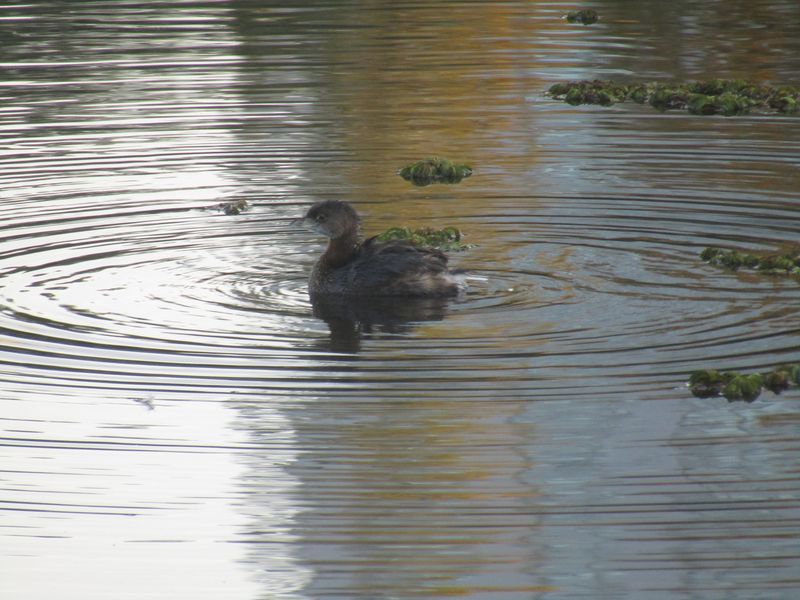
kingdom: Animalia
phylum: Chordata
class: Aves
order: Podicipediformes
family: Podicipedidae
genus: Podilymbus
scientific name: Podilymbus podiceps
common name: Pied-billed grebe
